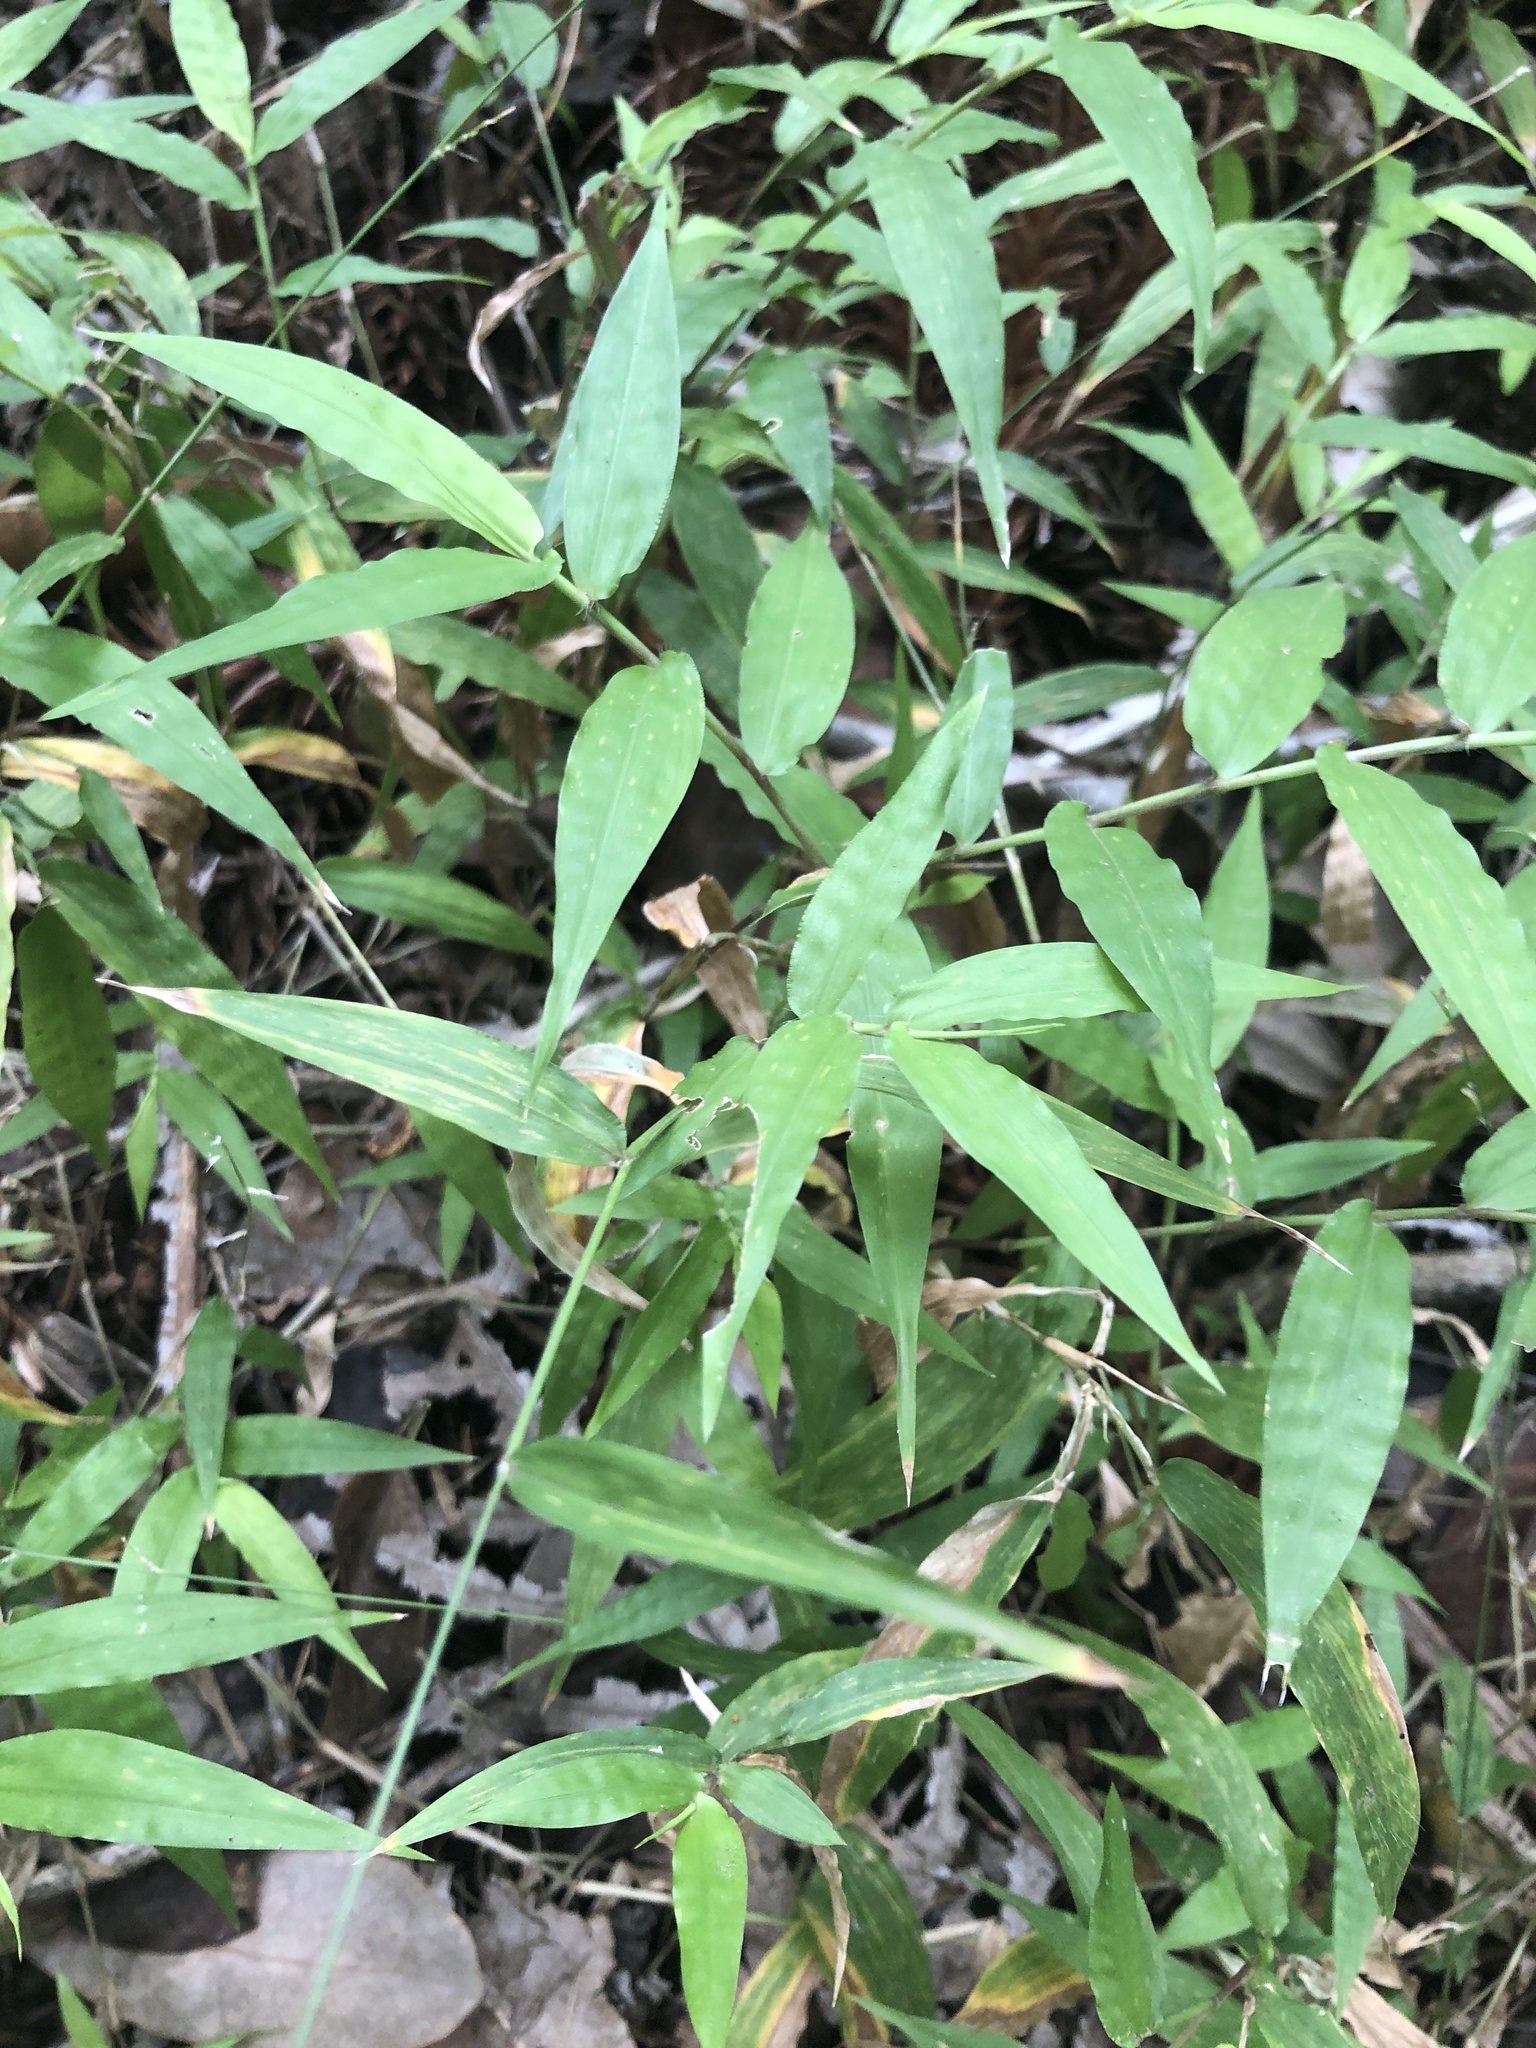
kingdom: Plantae
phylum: Tracheophyta
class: Liliopsida
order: Poales
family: Poaceae
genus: Oplismenus
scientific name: Oplismenus hirtellus
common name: Basketgrass
